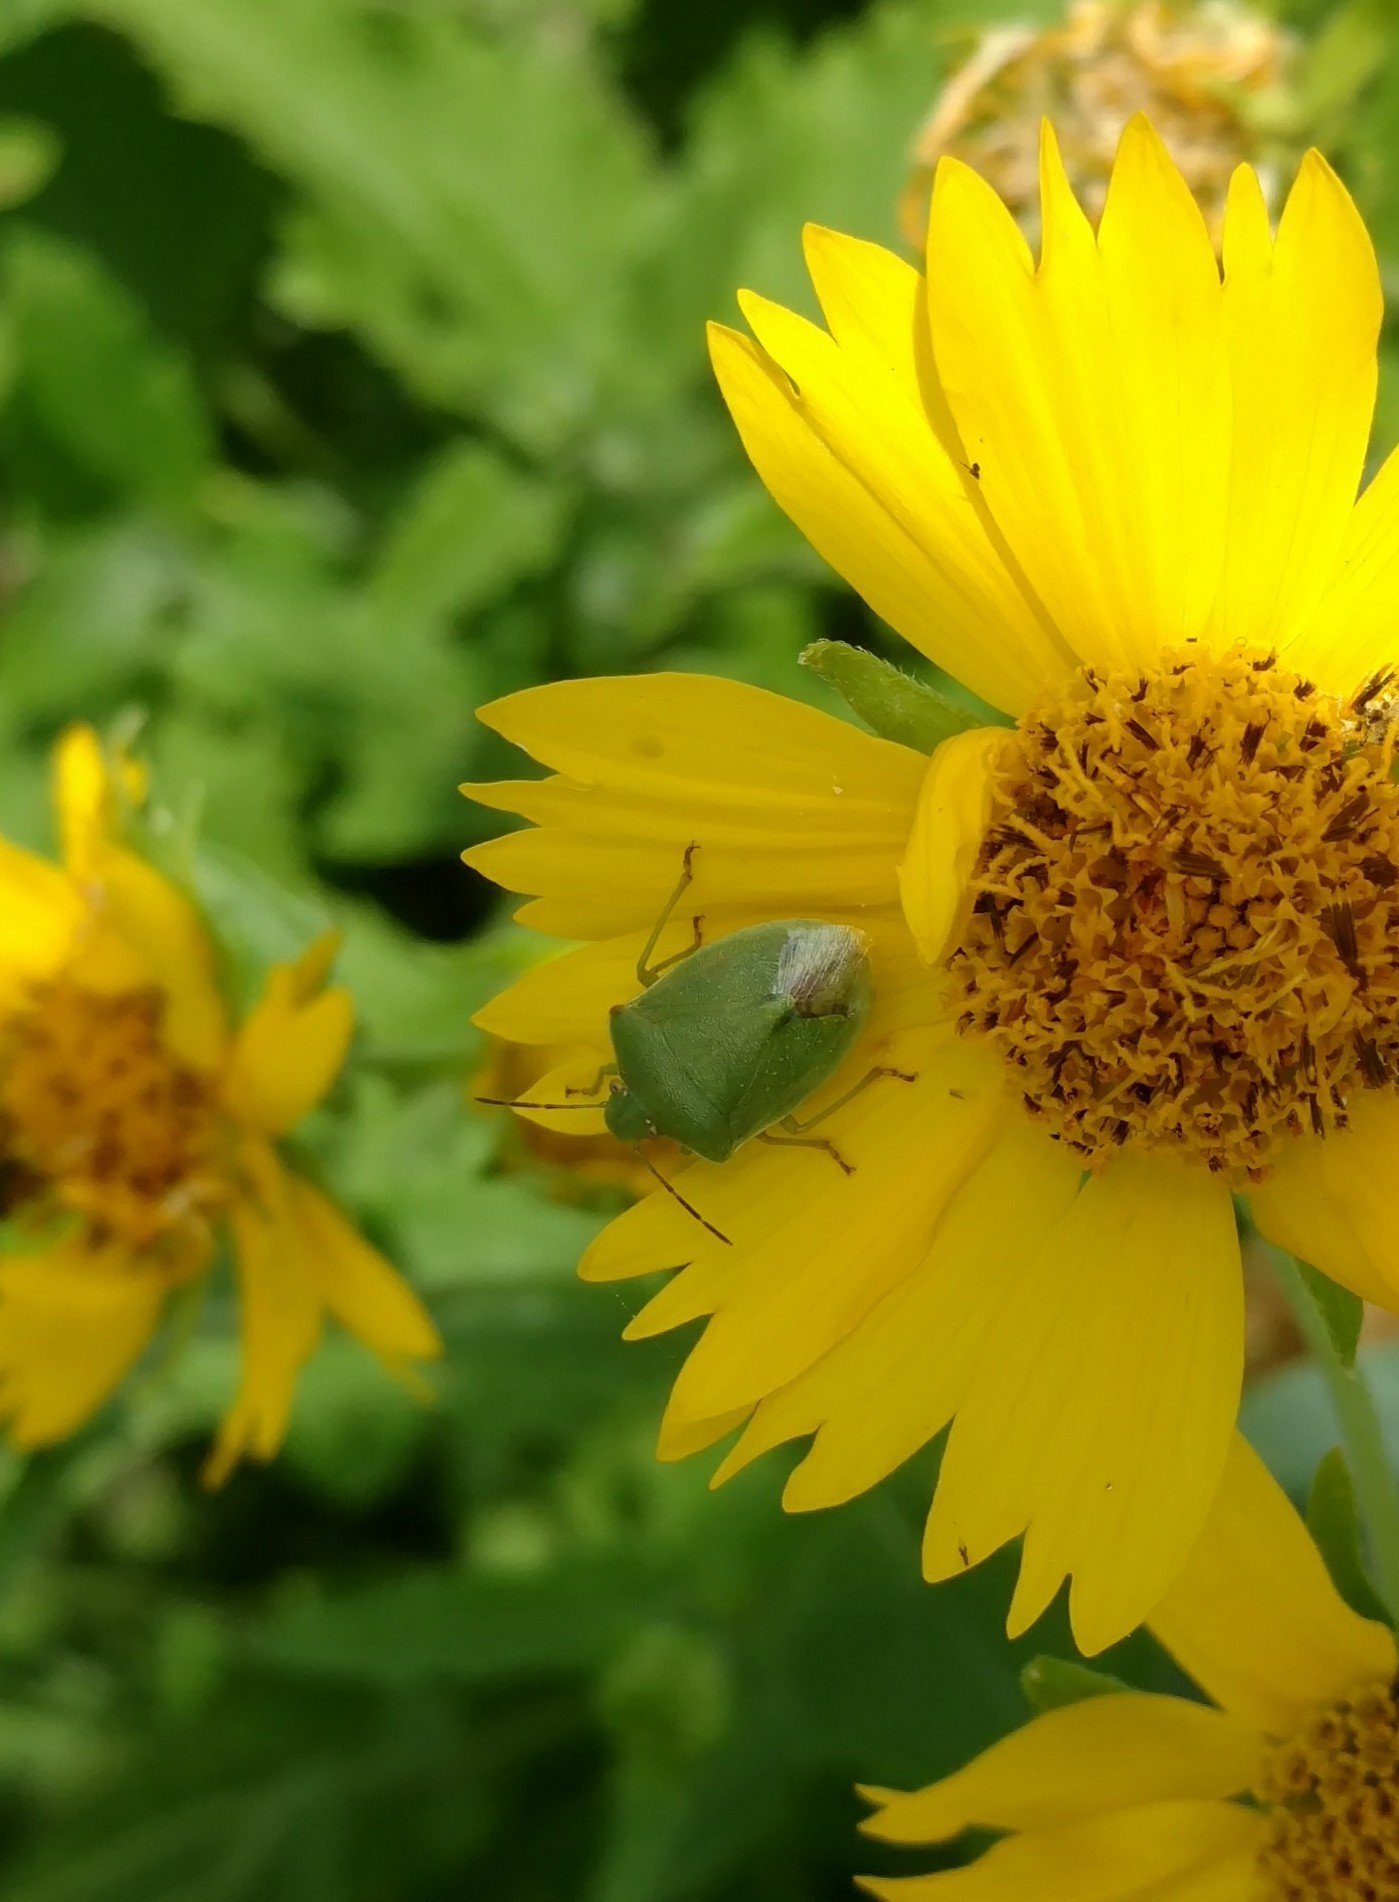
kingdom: Animalia
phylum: Arthropoda
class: Insecta
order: Hemiptera
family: Pentatomidae
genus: Chinavia
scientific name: Chinavia hilaris
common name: Green stink bug
